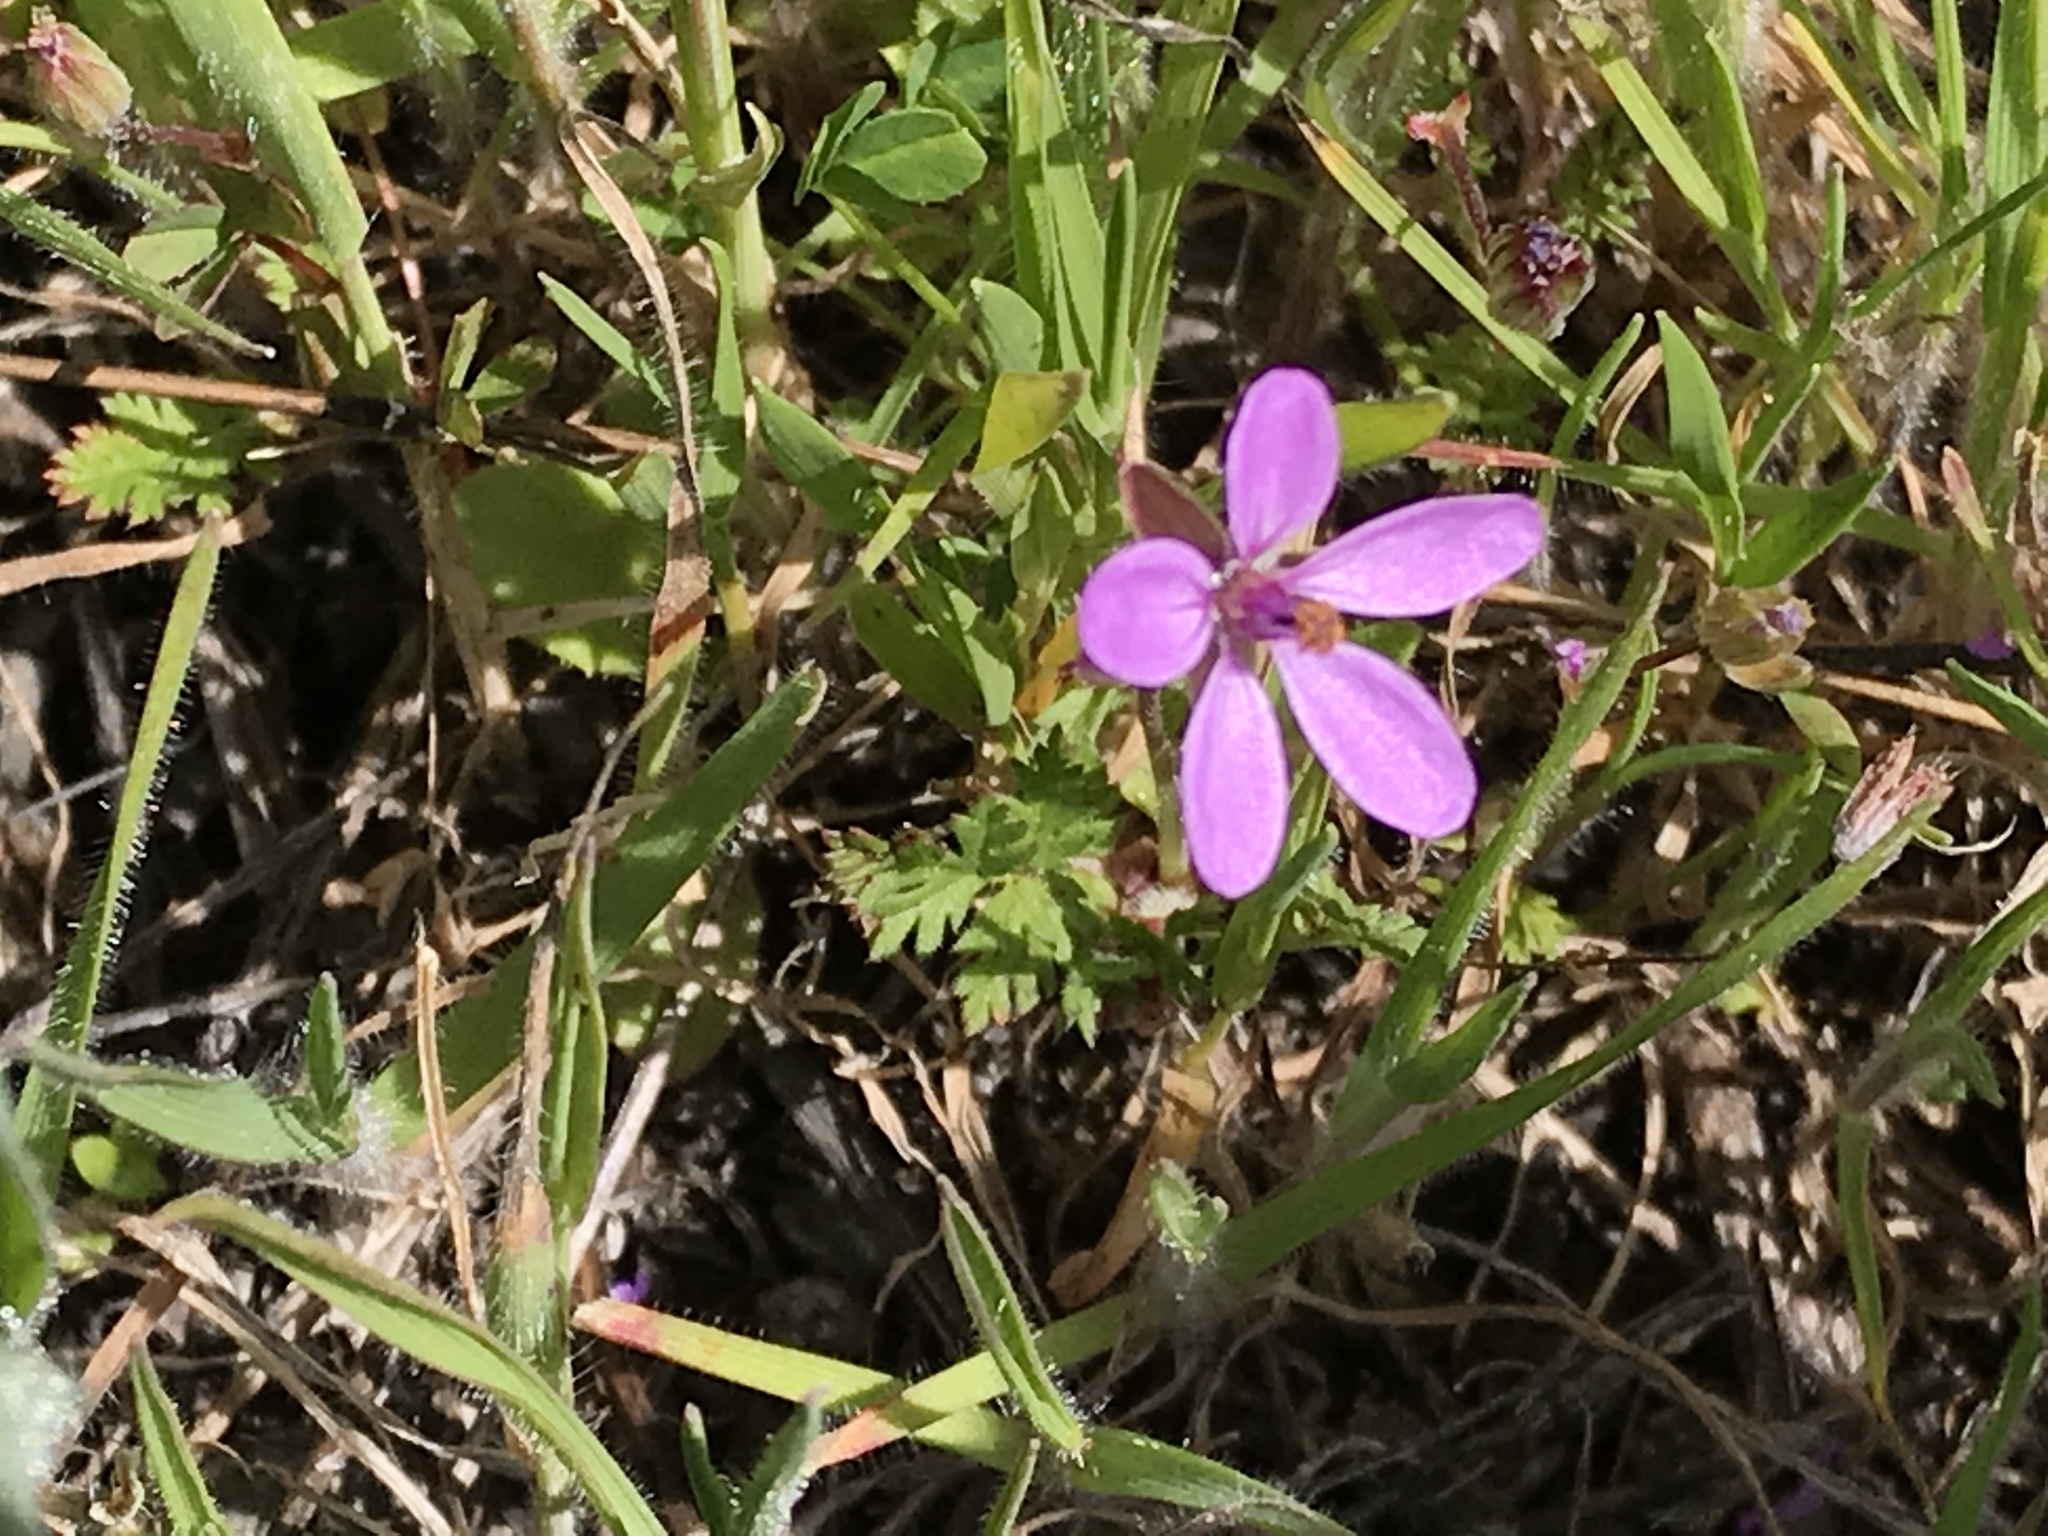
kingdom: Plantae
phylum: Tracheophyta
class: Magnoliopsida
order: Geraniales
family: Geraniaceae
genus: Erodium
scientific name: Erodium cicutarium
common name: Common stork's-bill
